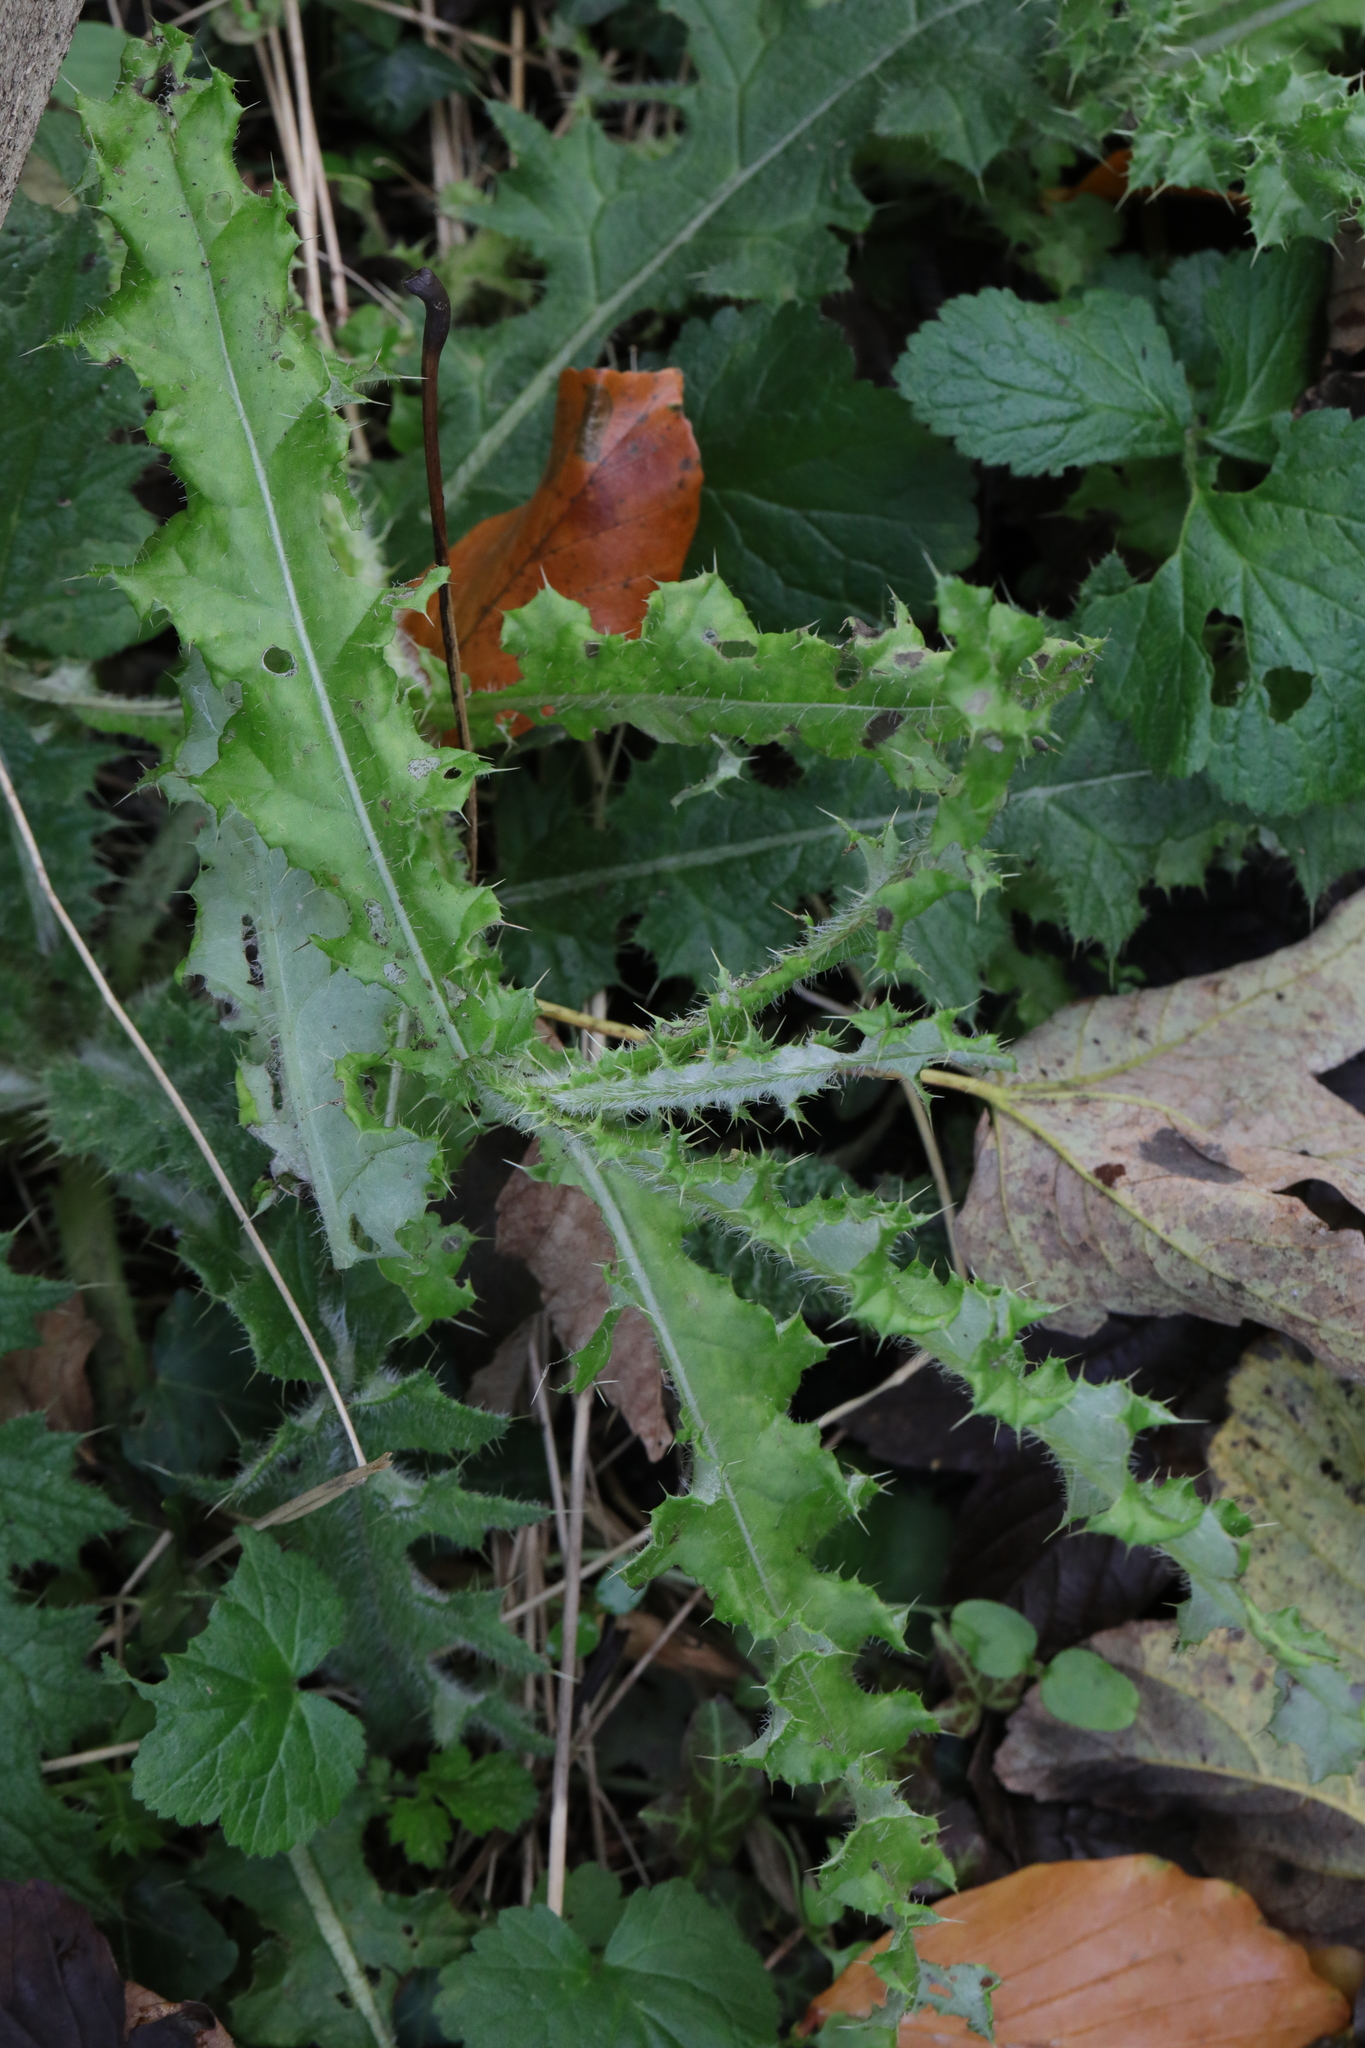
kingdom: Plantae
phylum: Tracheophyta
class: Magnoliopsida
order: Asterales
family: Asteraceae
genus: Cirsium
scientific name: Cirsium vulgare
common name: Bull thistle
